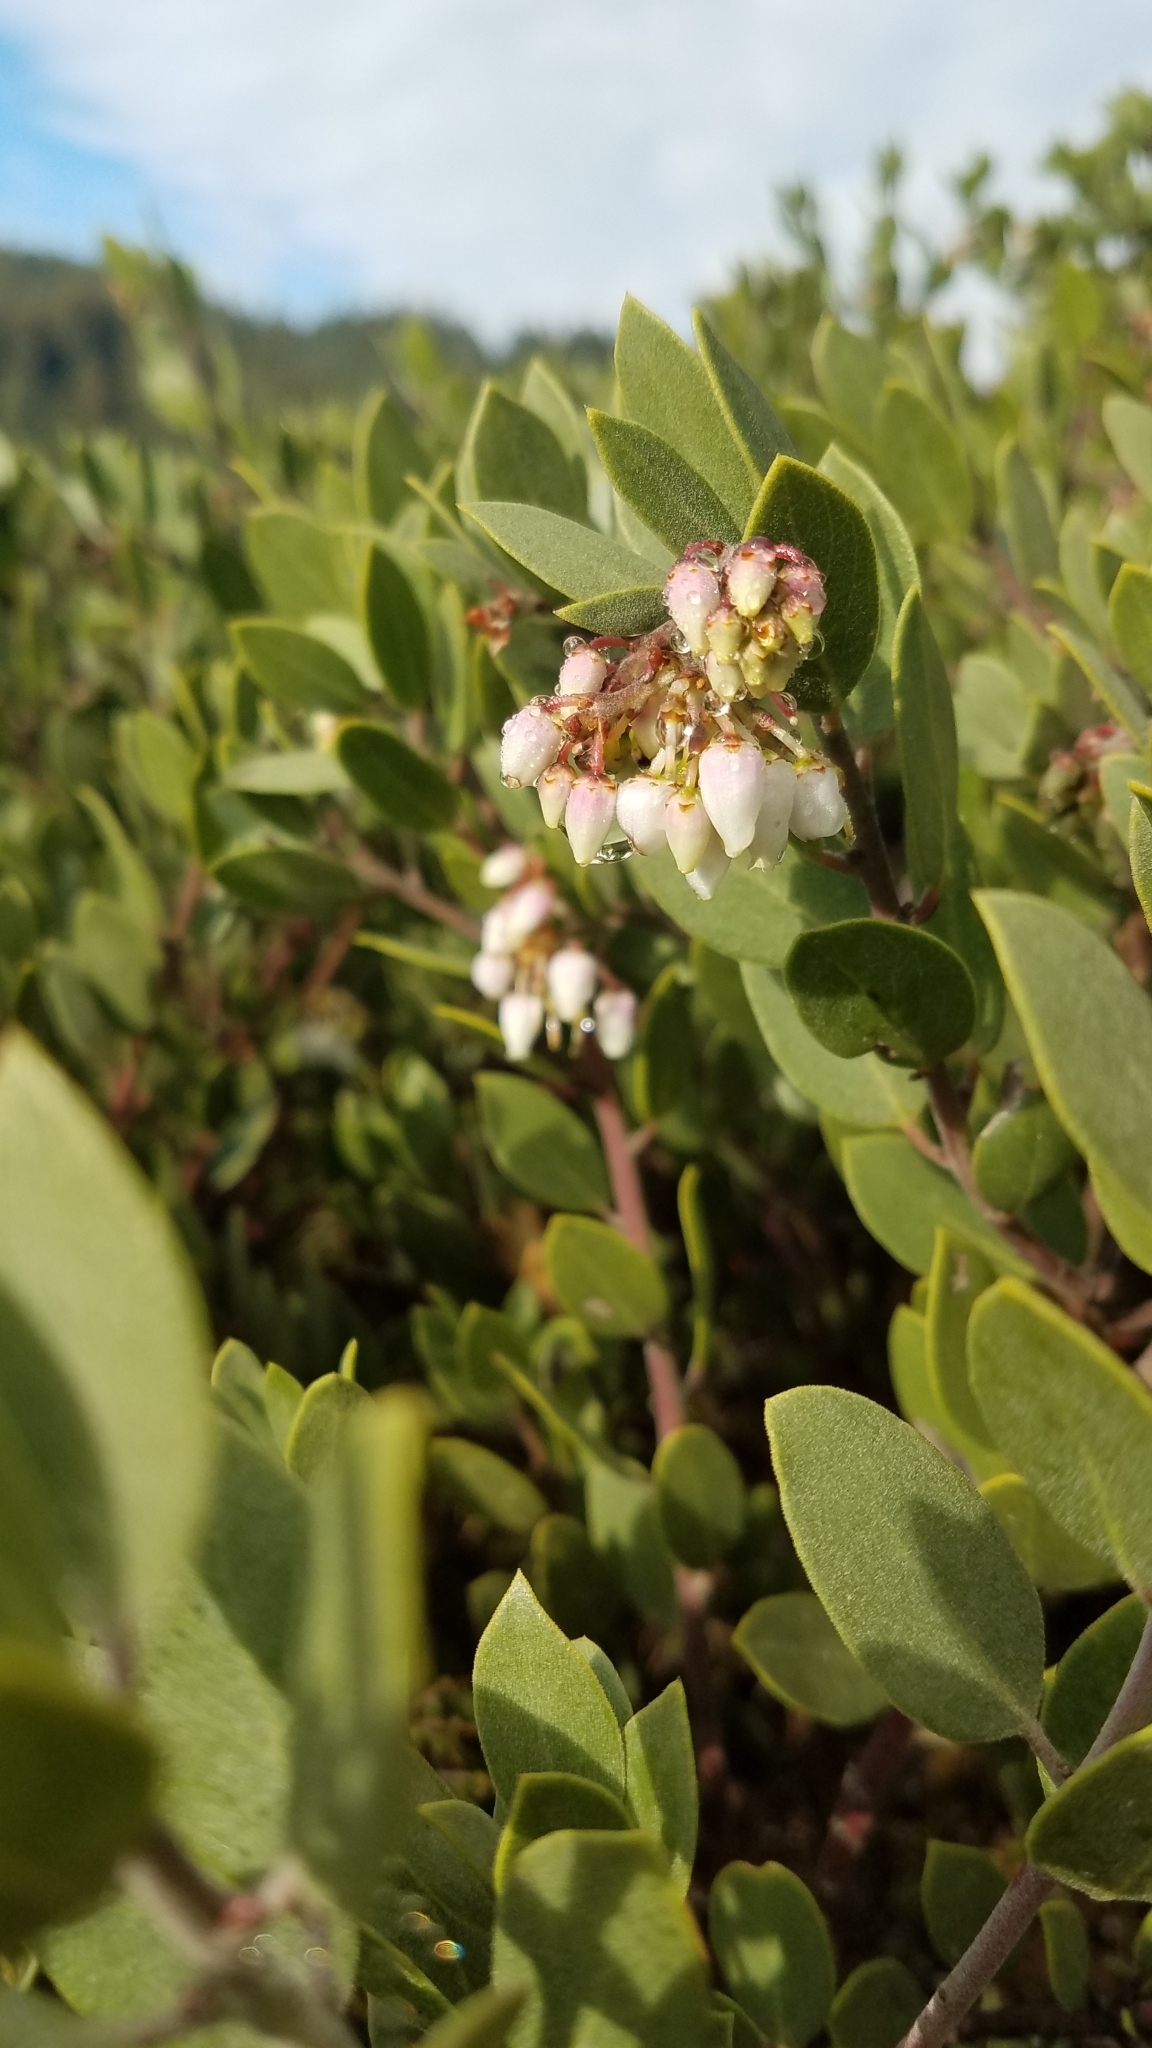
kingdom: Plantae
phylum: Tracheophyta
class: Magnoliopsida
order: Ericales
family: Ericaceae
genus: Arctostaphylos
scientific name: Arctostaphylos montana
